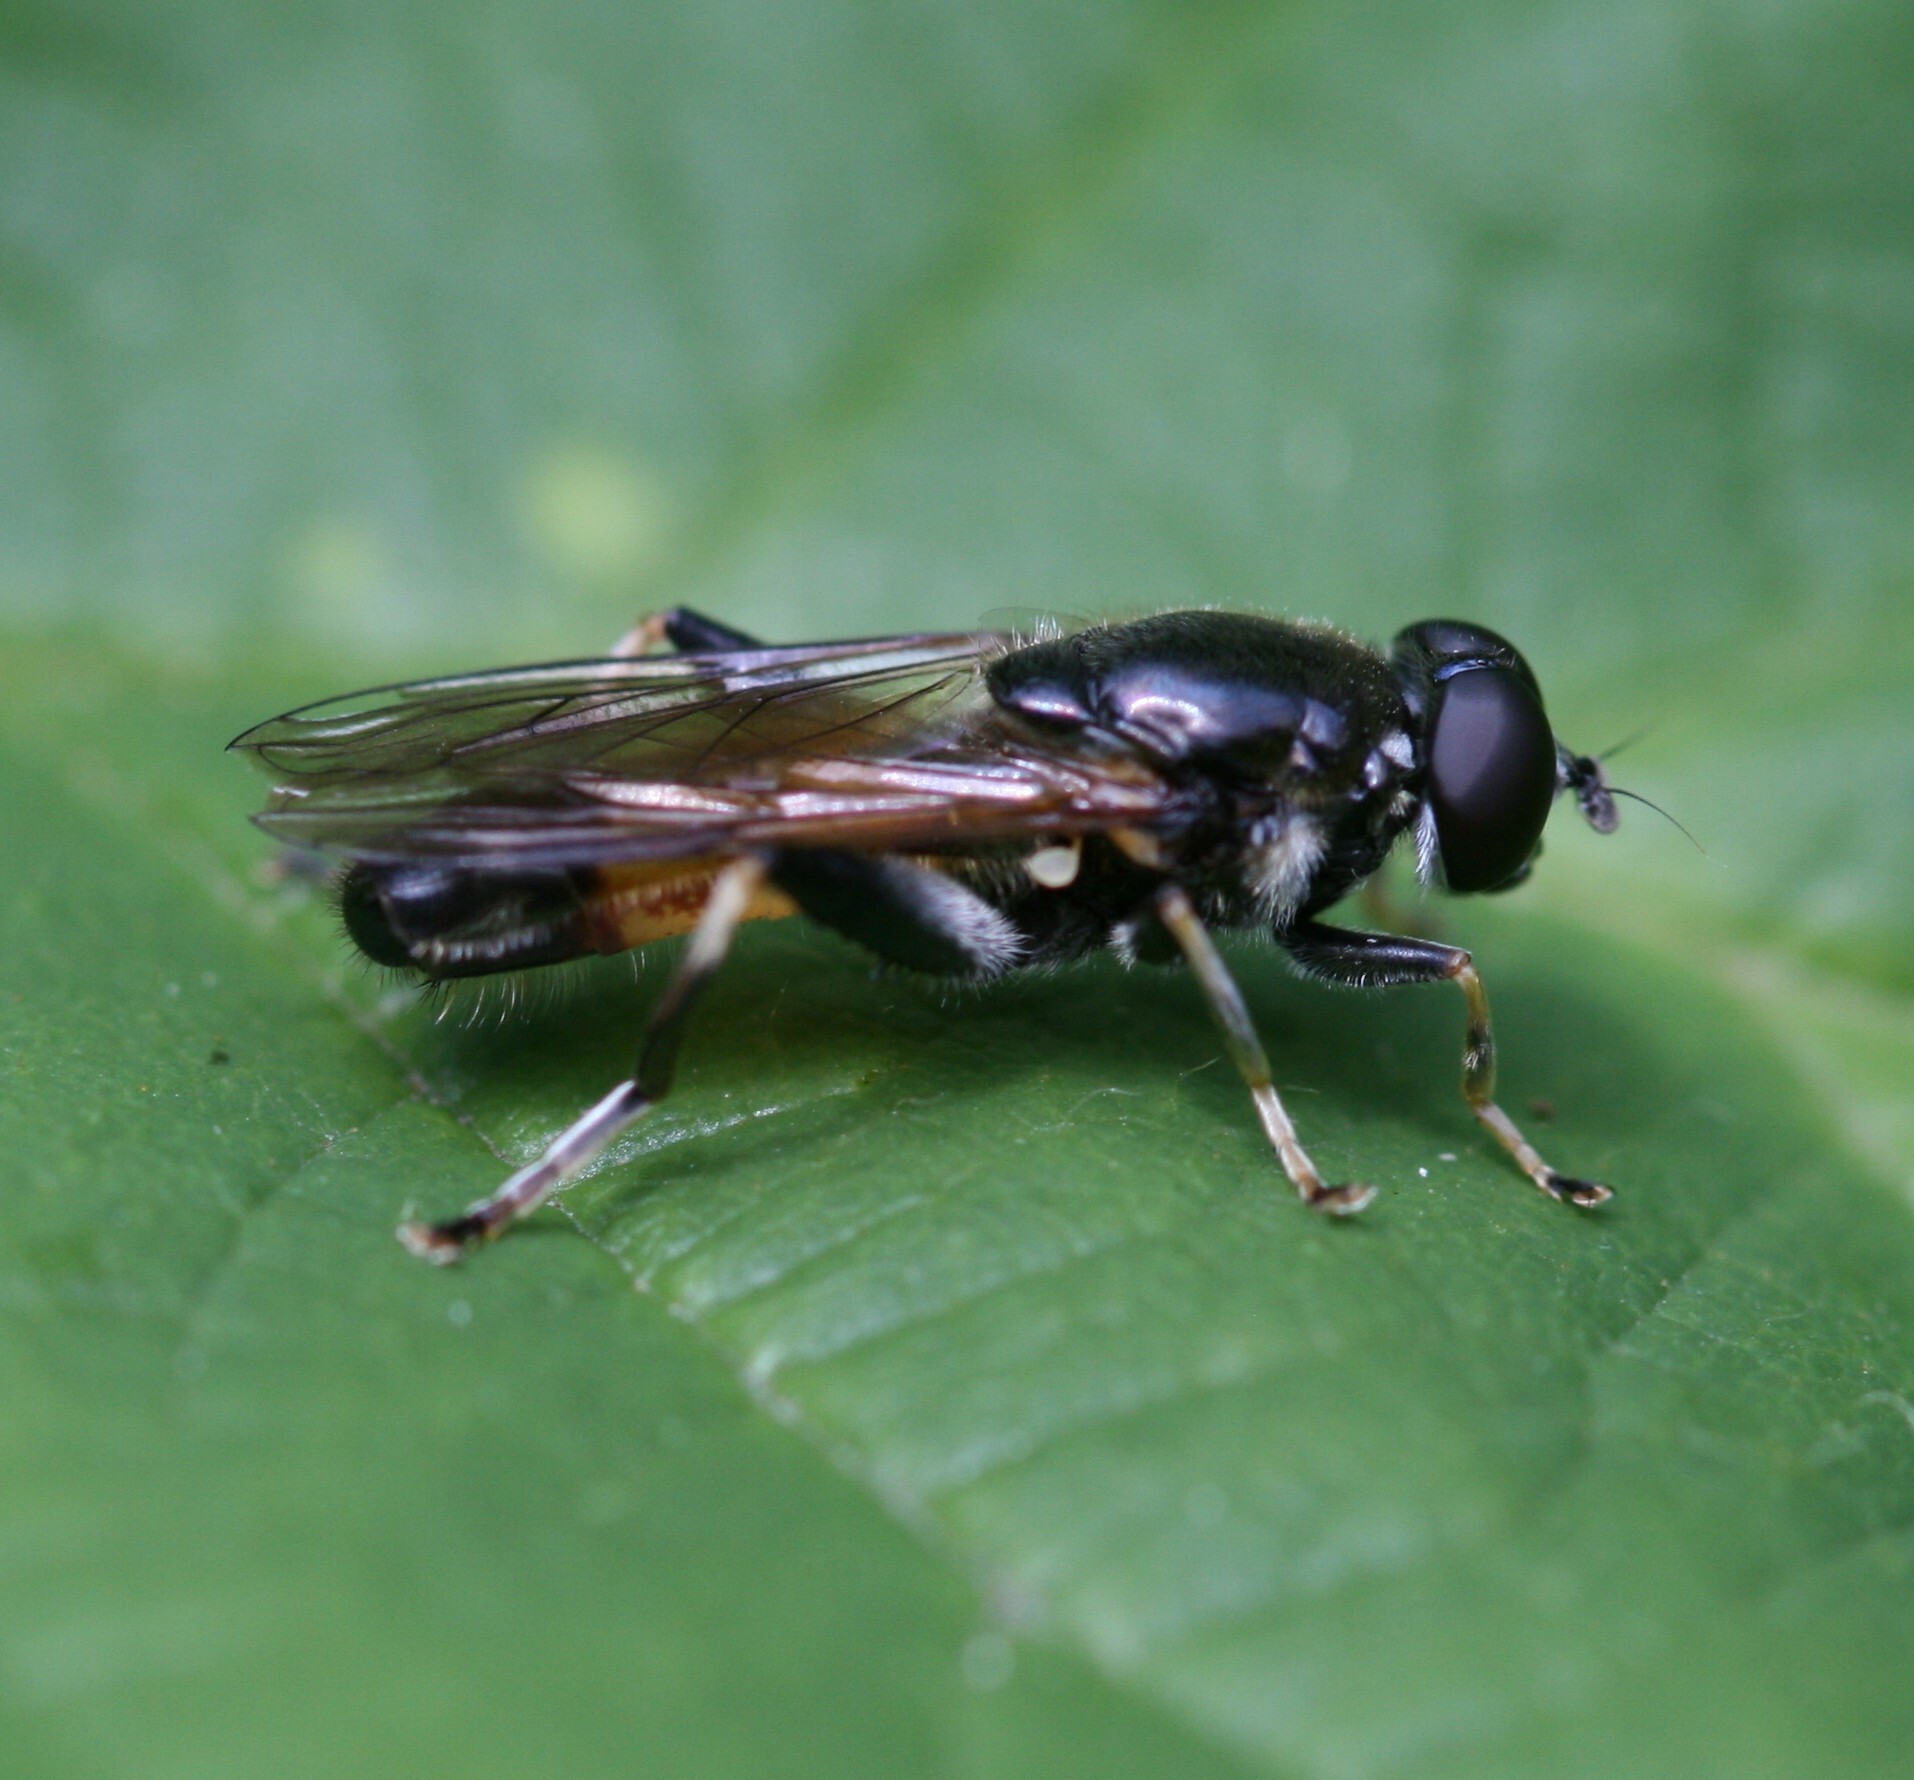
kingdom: Animalia
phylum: Arthropoda
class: Insecta
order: Diptera
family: Syrphidae
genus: Xylota
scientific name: Xylota segnis
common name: Brown-toed forest fly
